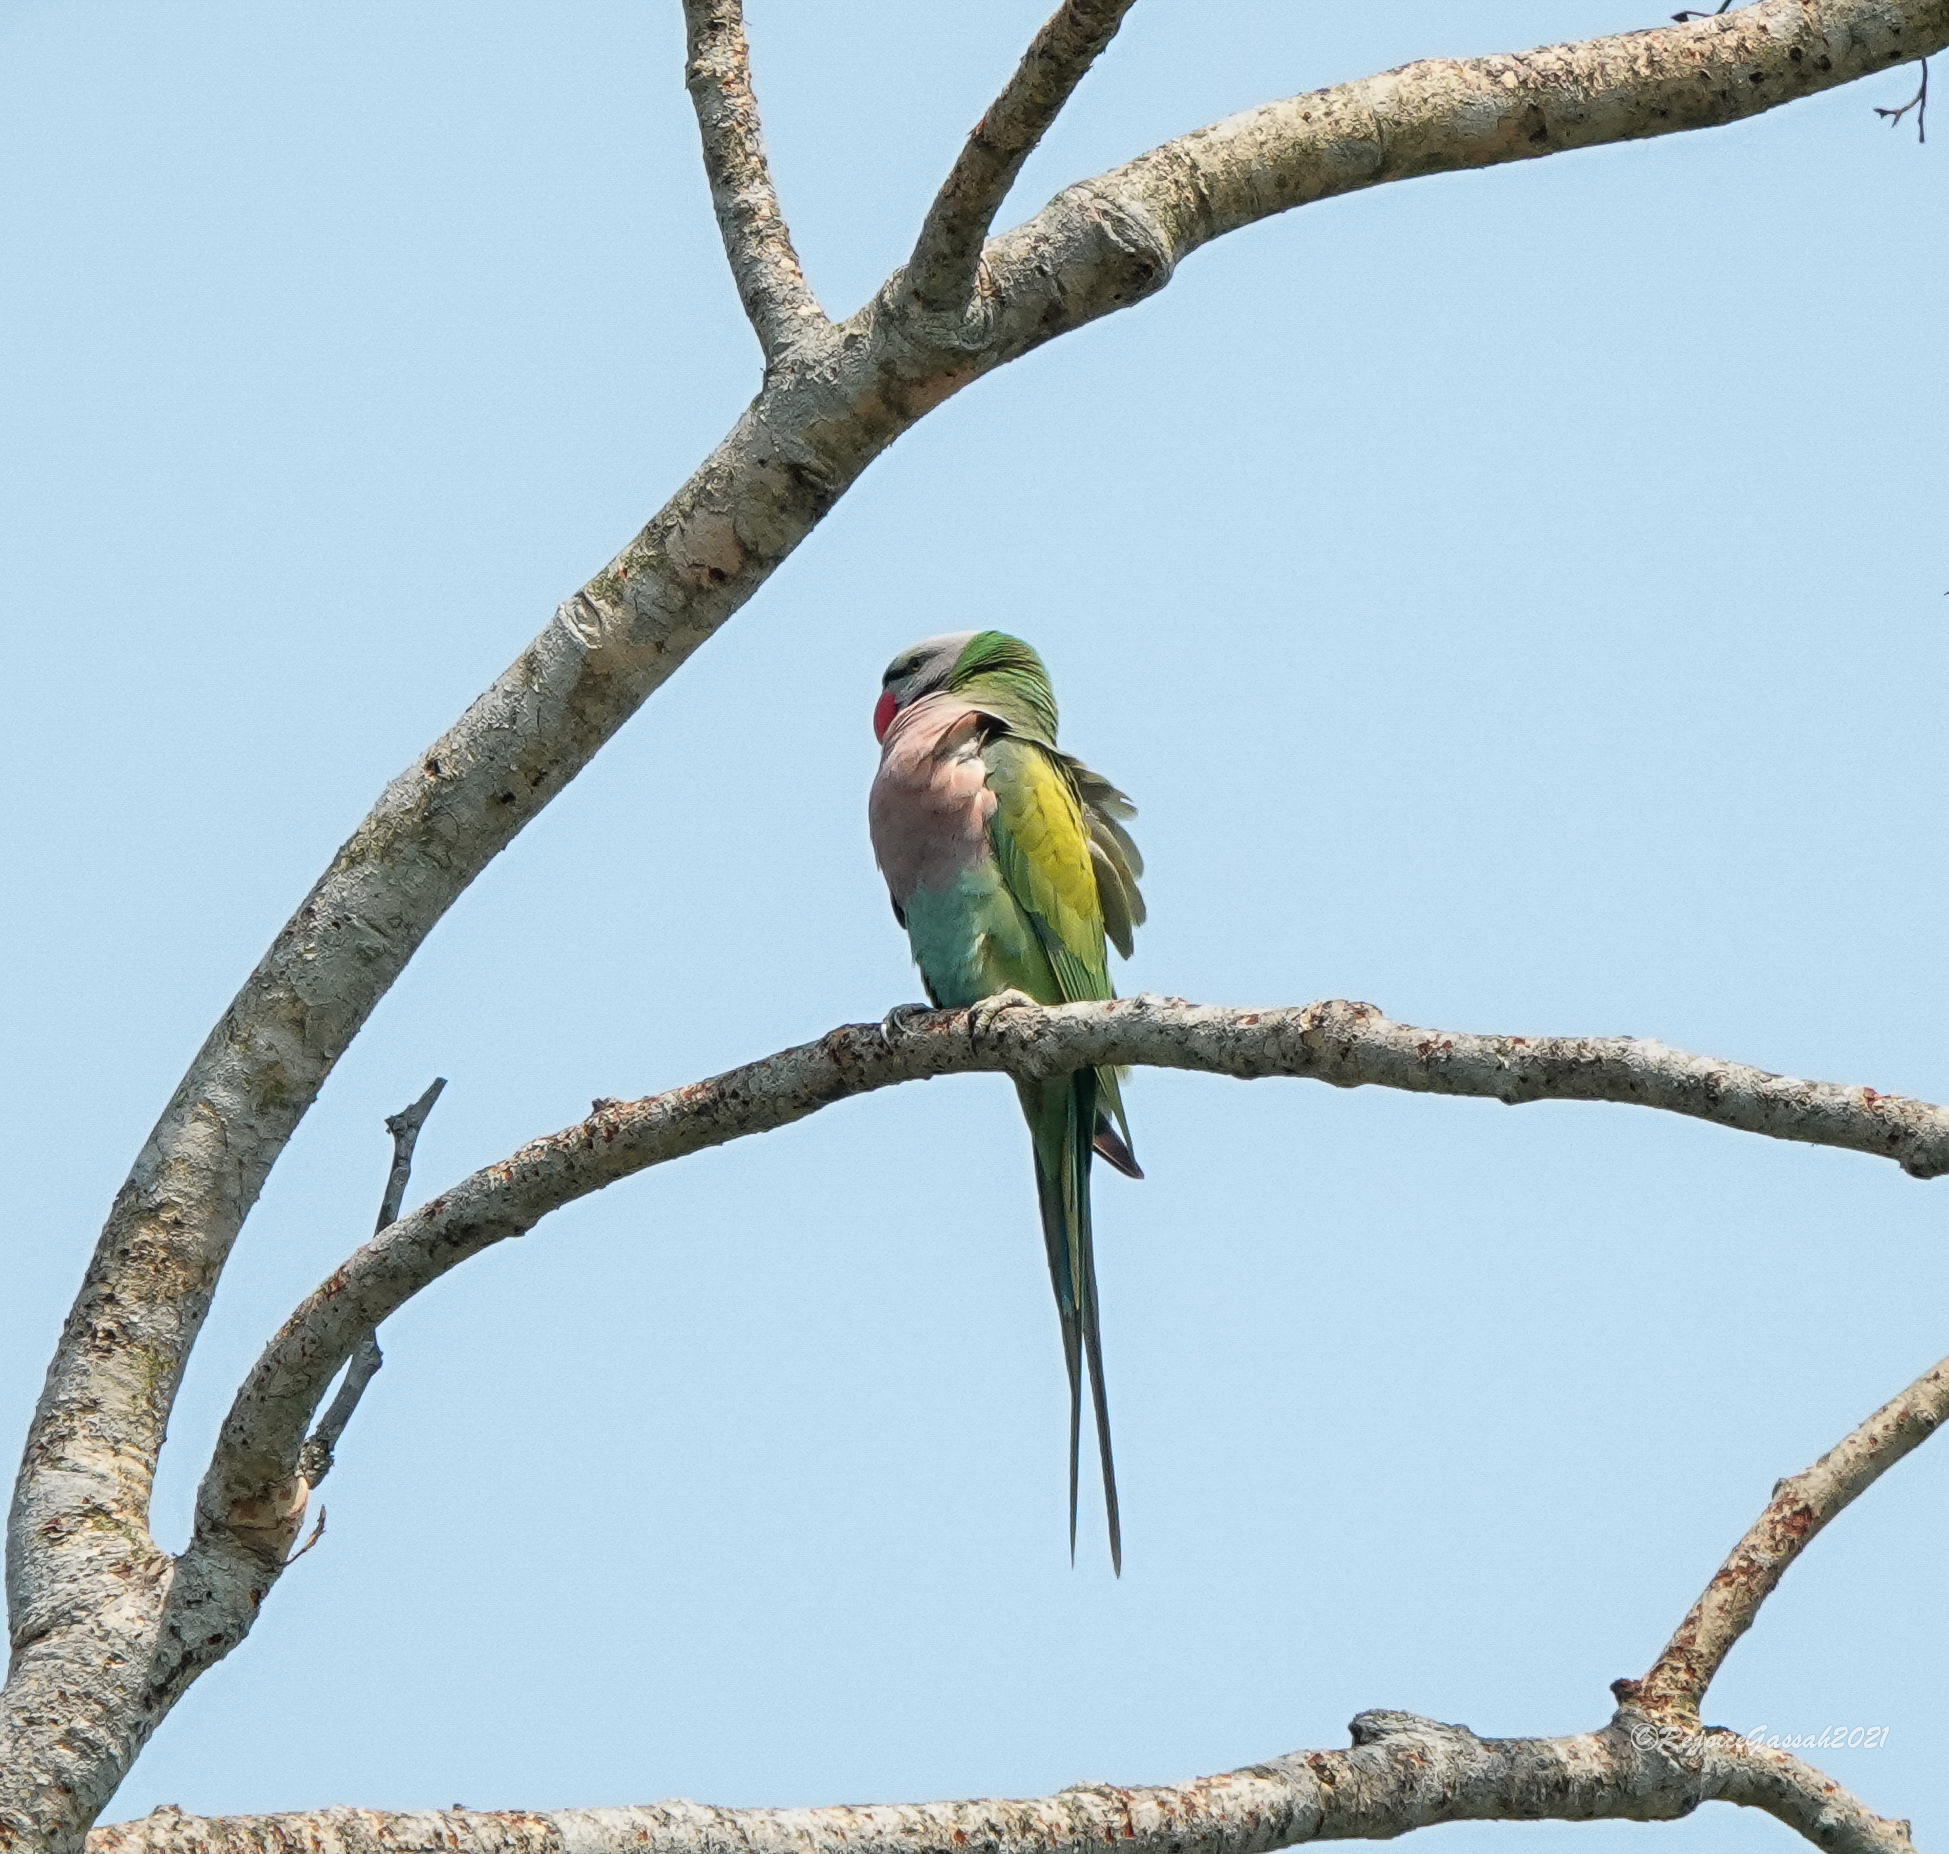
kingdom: Animalia
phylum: Chordata
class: Aves
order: Psittaciformes
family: Psittacidae
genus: Psittacula
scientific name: Psittacula alexandri
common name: Red-breasted parakeet
